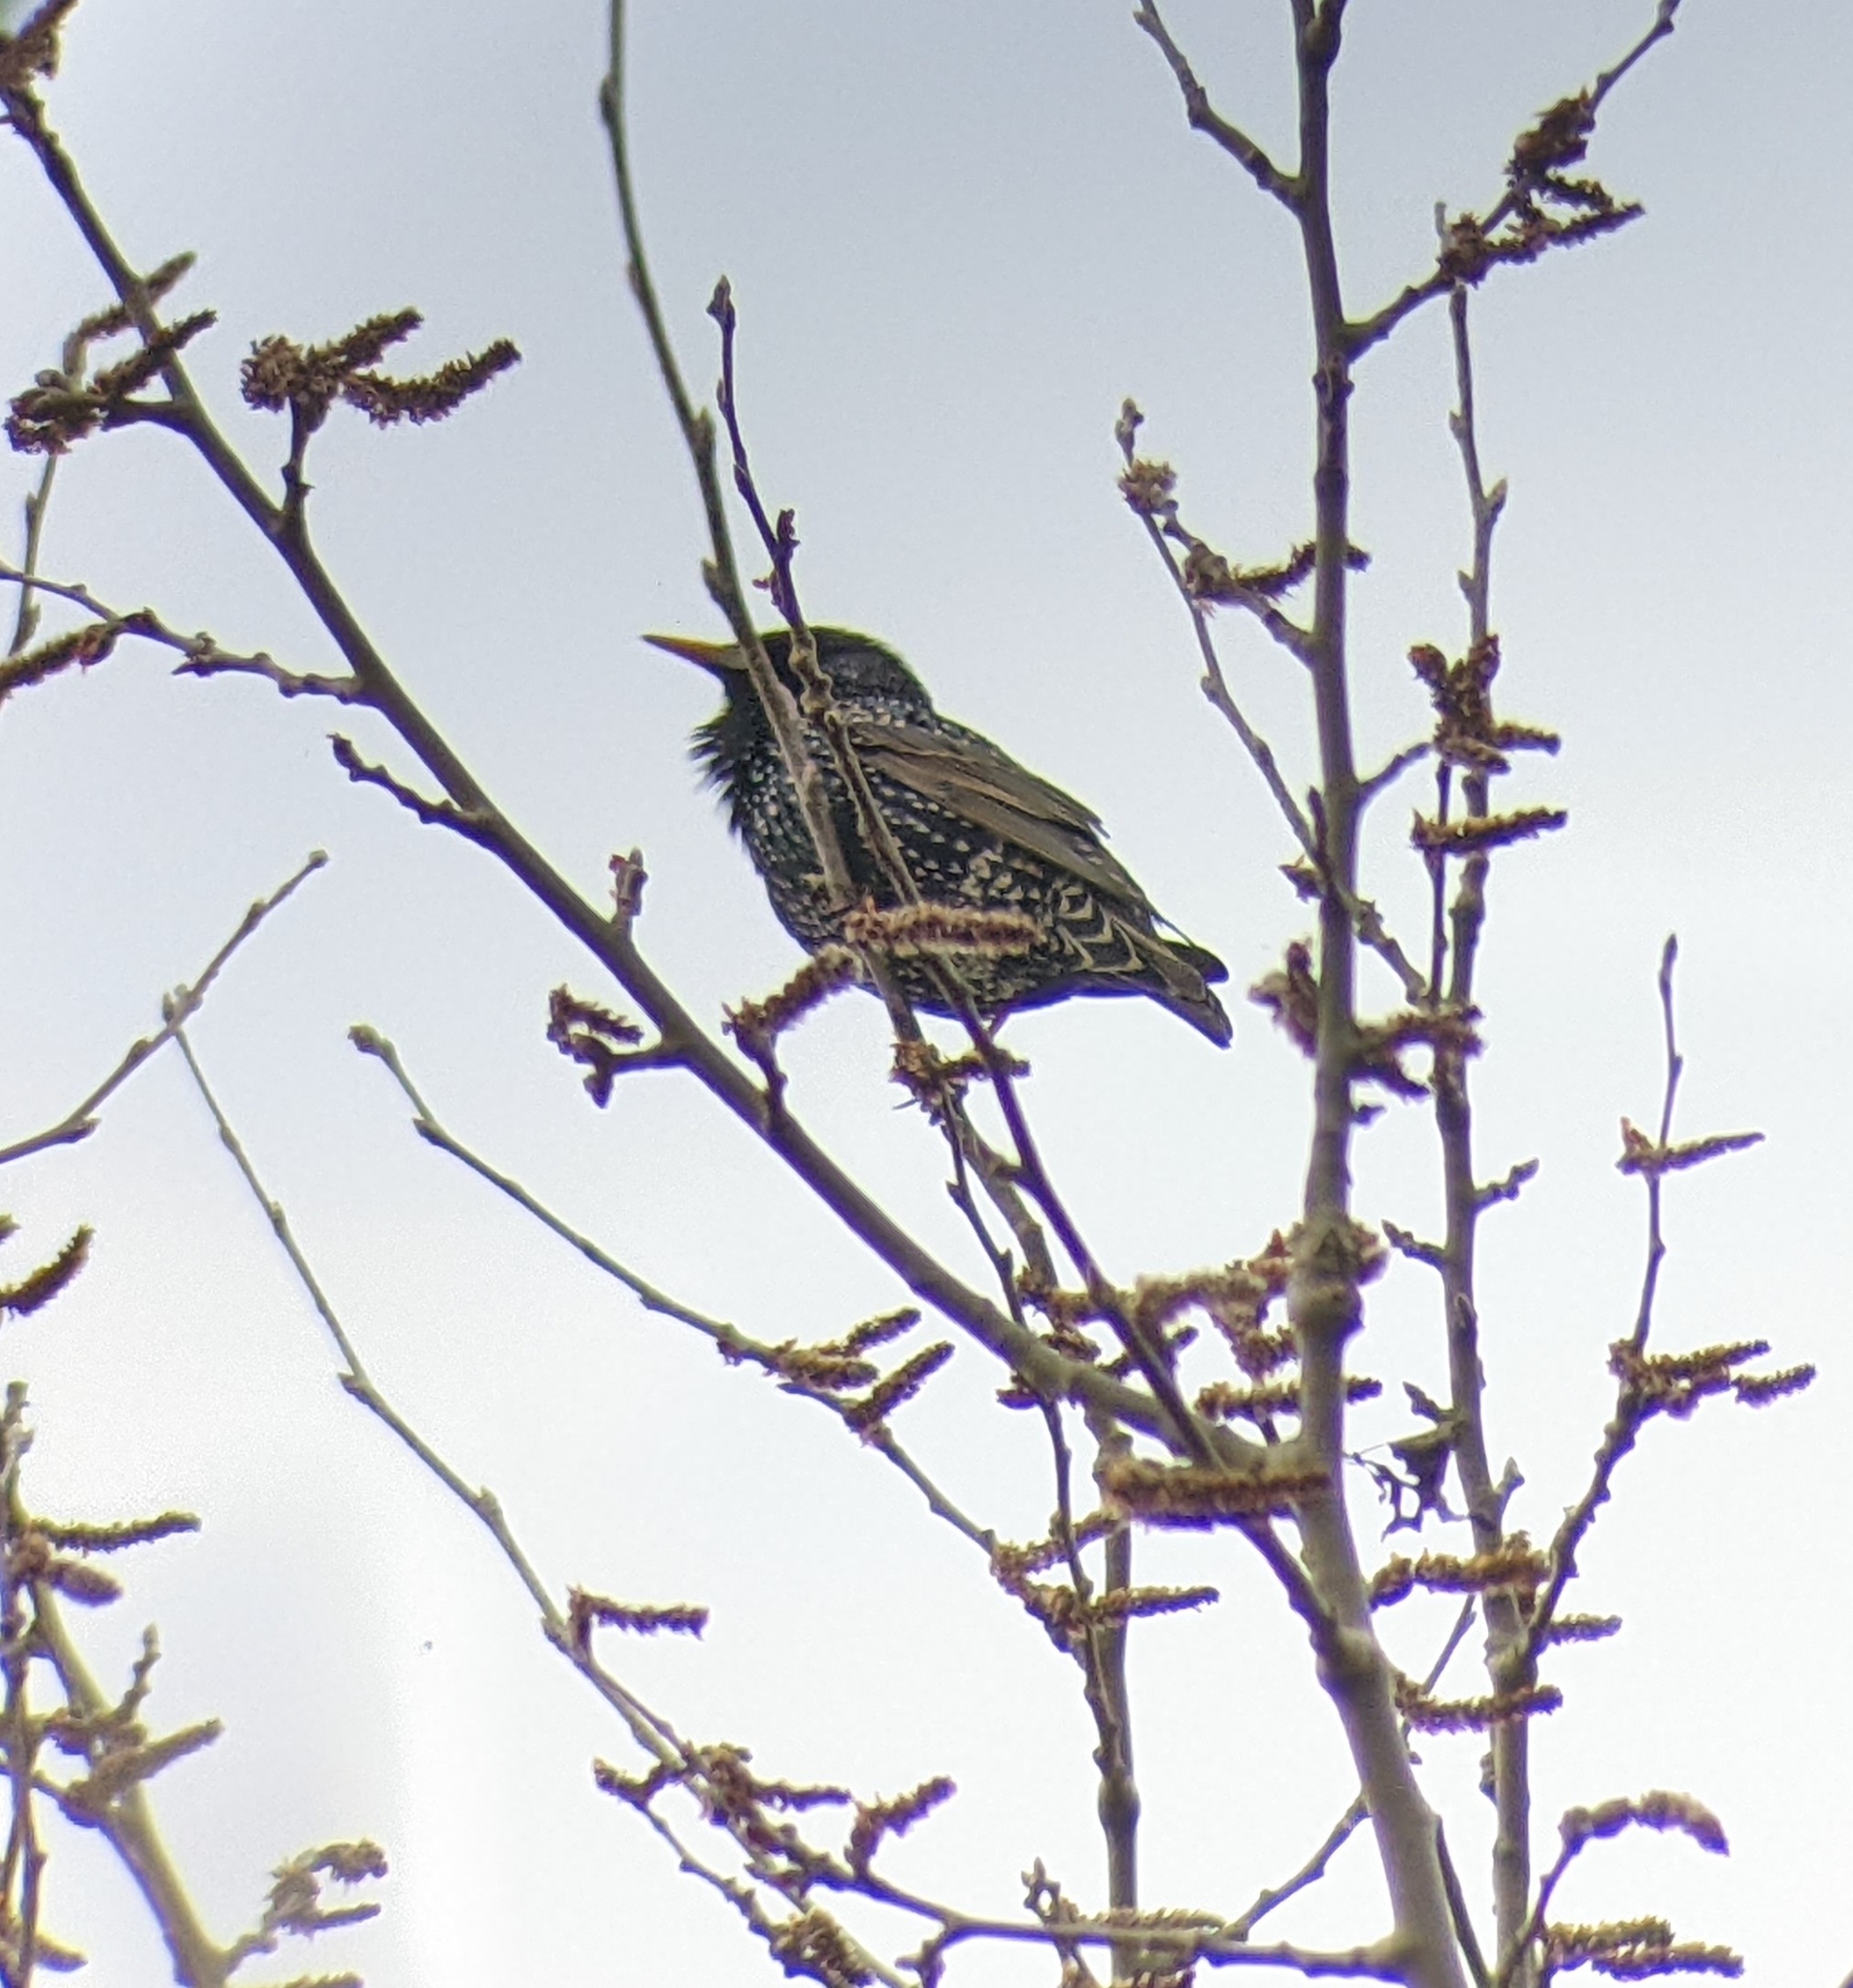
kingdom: Animalia
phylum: Chordata
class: Aves
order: Passeriformes
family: Sturnidae
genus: Sturnus
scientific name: Sturnus vulgaris
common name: Common starling
